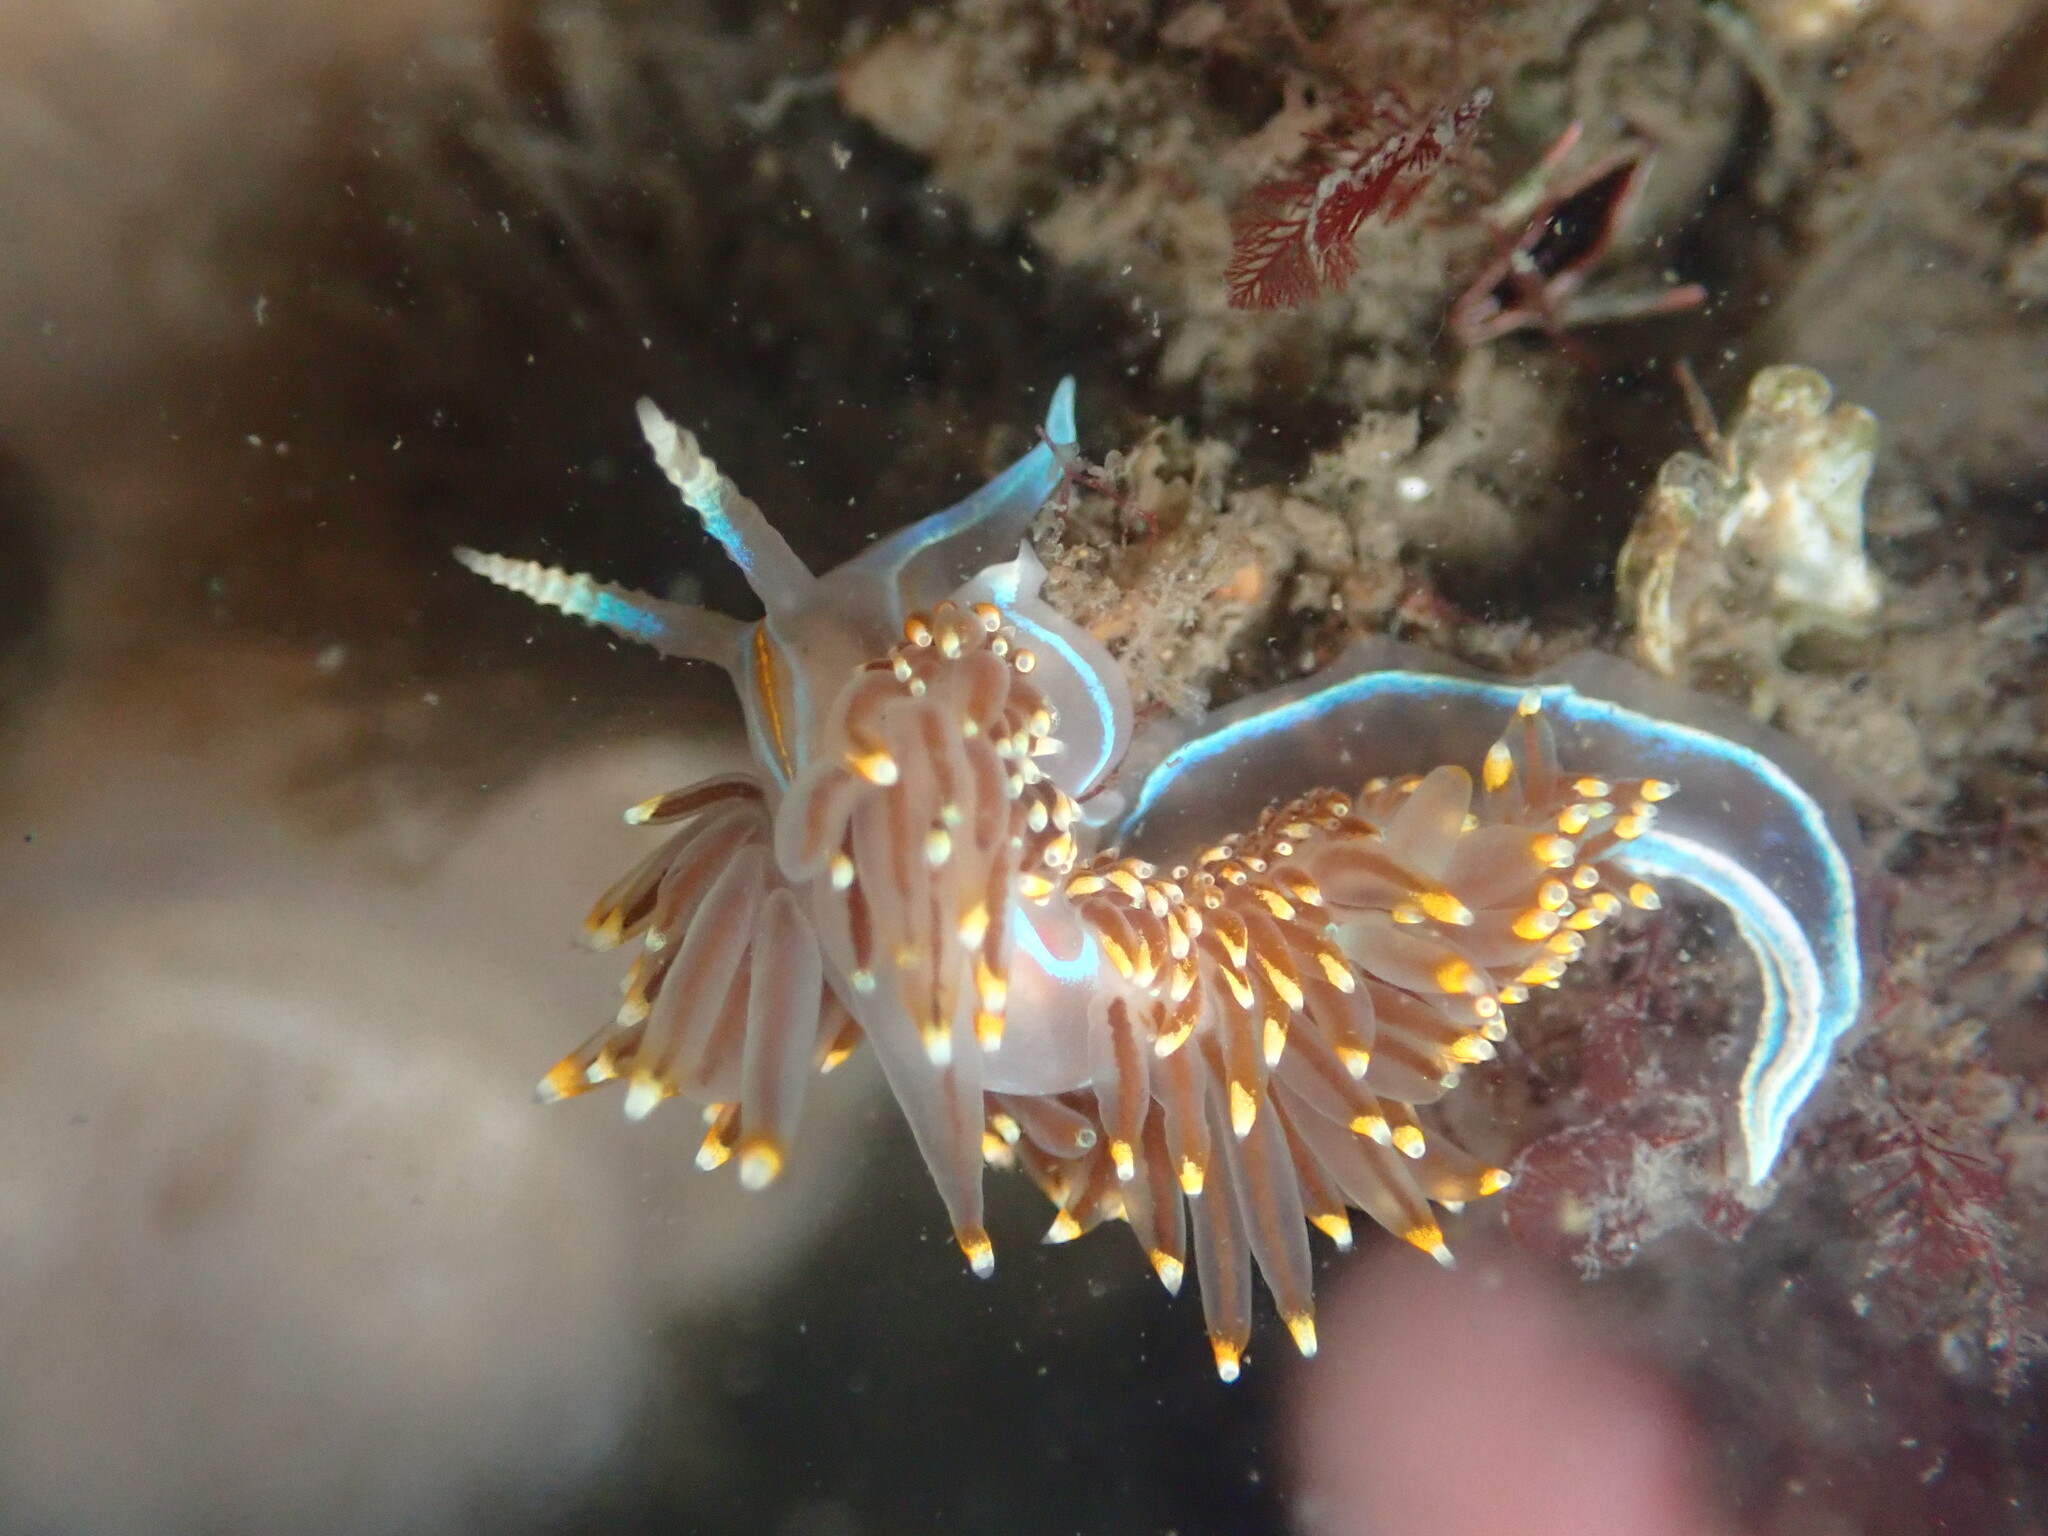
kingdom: Animalia
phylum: Mollusca
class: Gastropoda
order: Nudibranchia
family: Myrrhinidae
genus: Hermissenda
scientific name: Hermissenda opalescens
